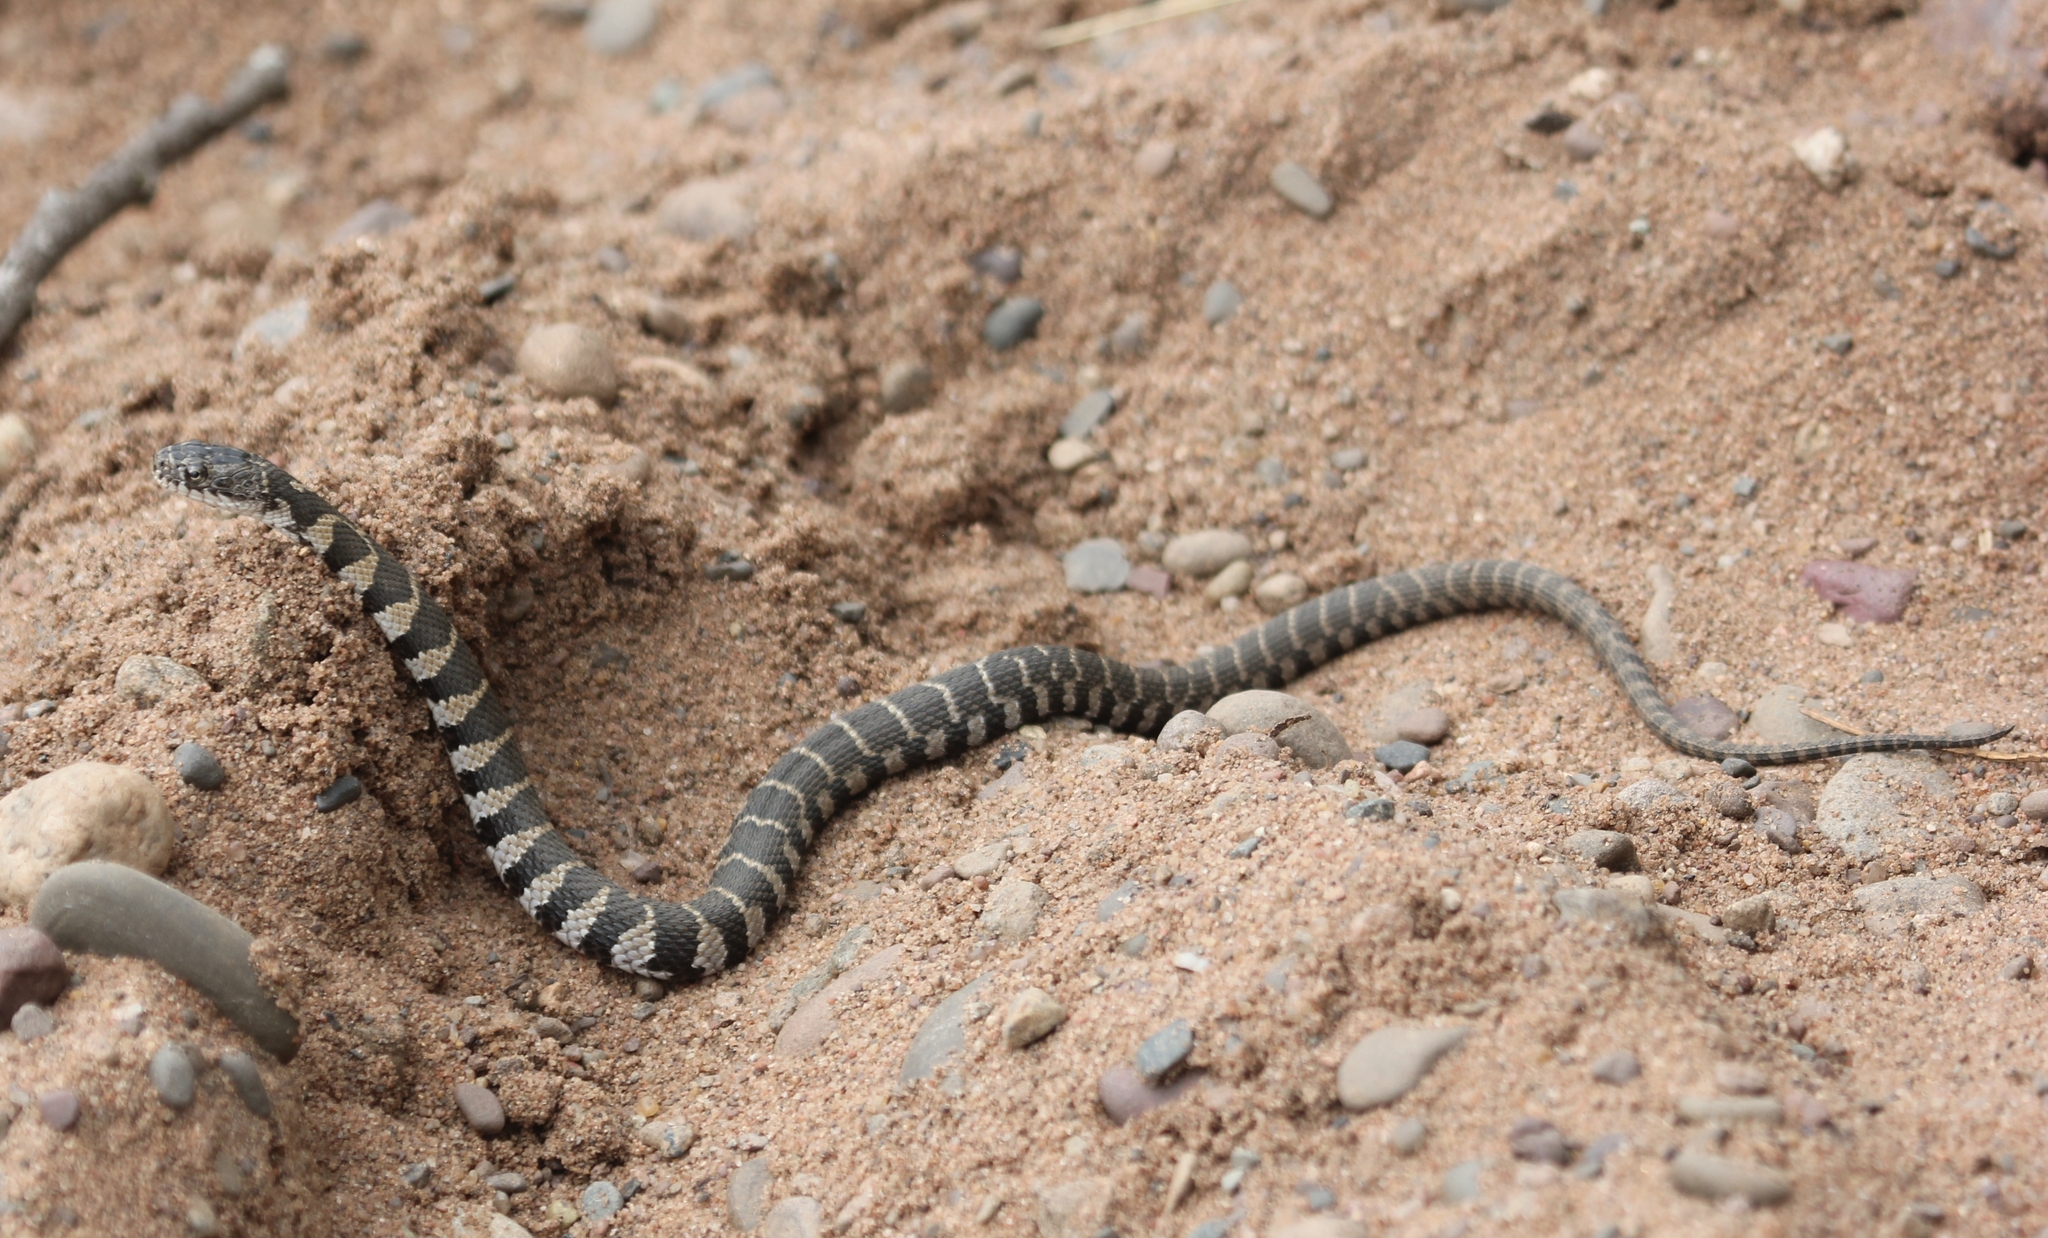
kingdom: Animalia
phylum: Chordata
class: Squamata
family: Colubridae
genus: Nerodia
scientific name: Nerodia sipedon
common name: Northern water snake
